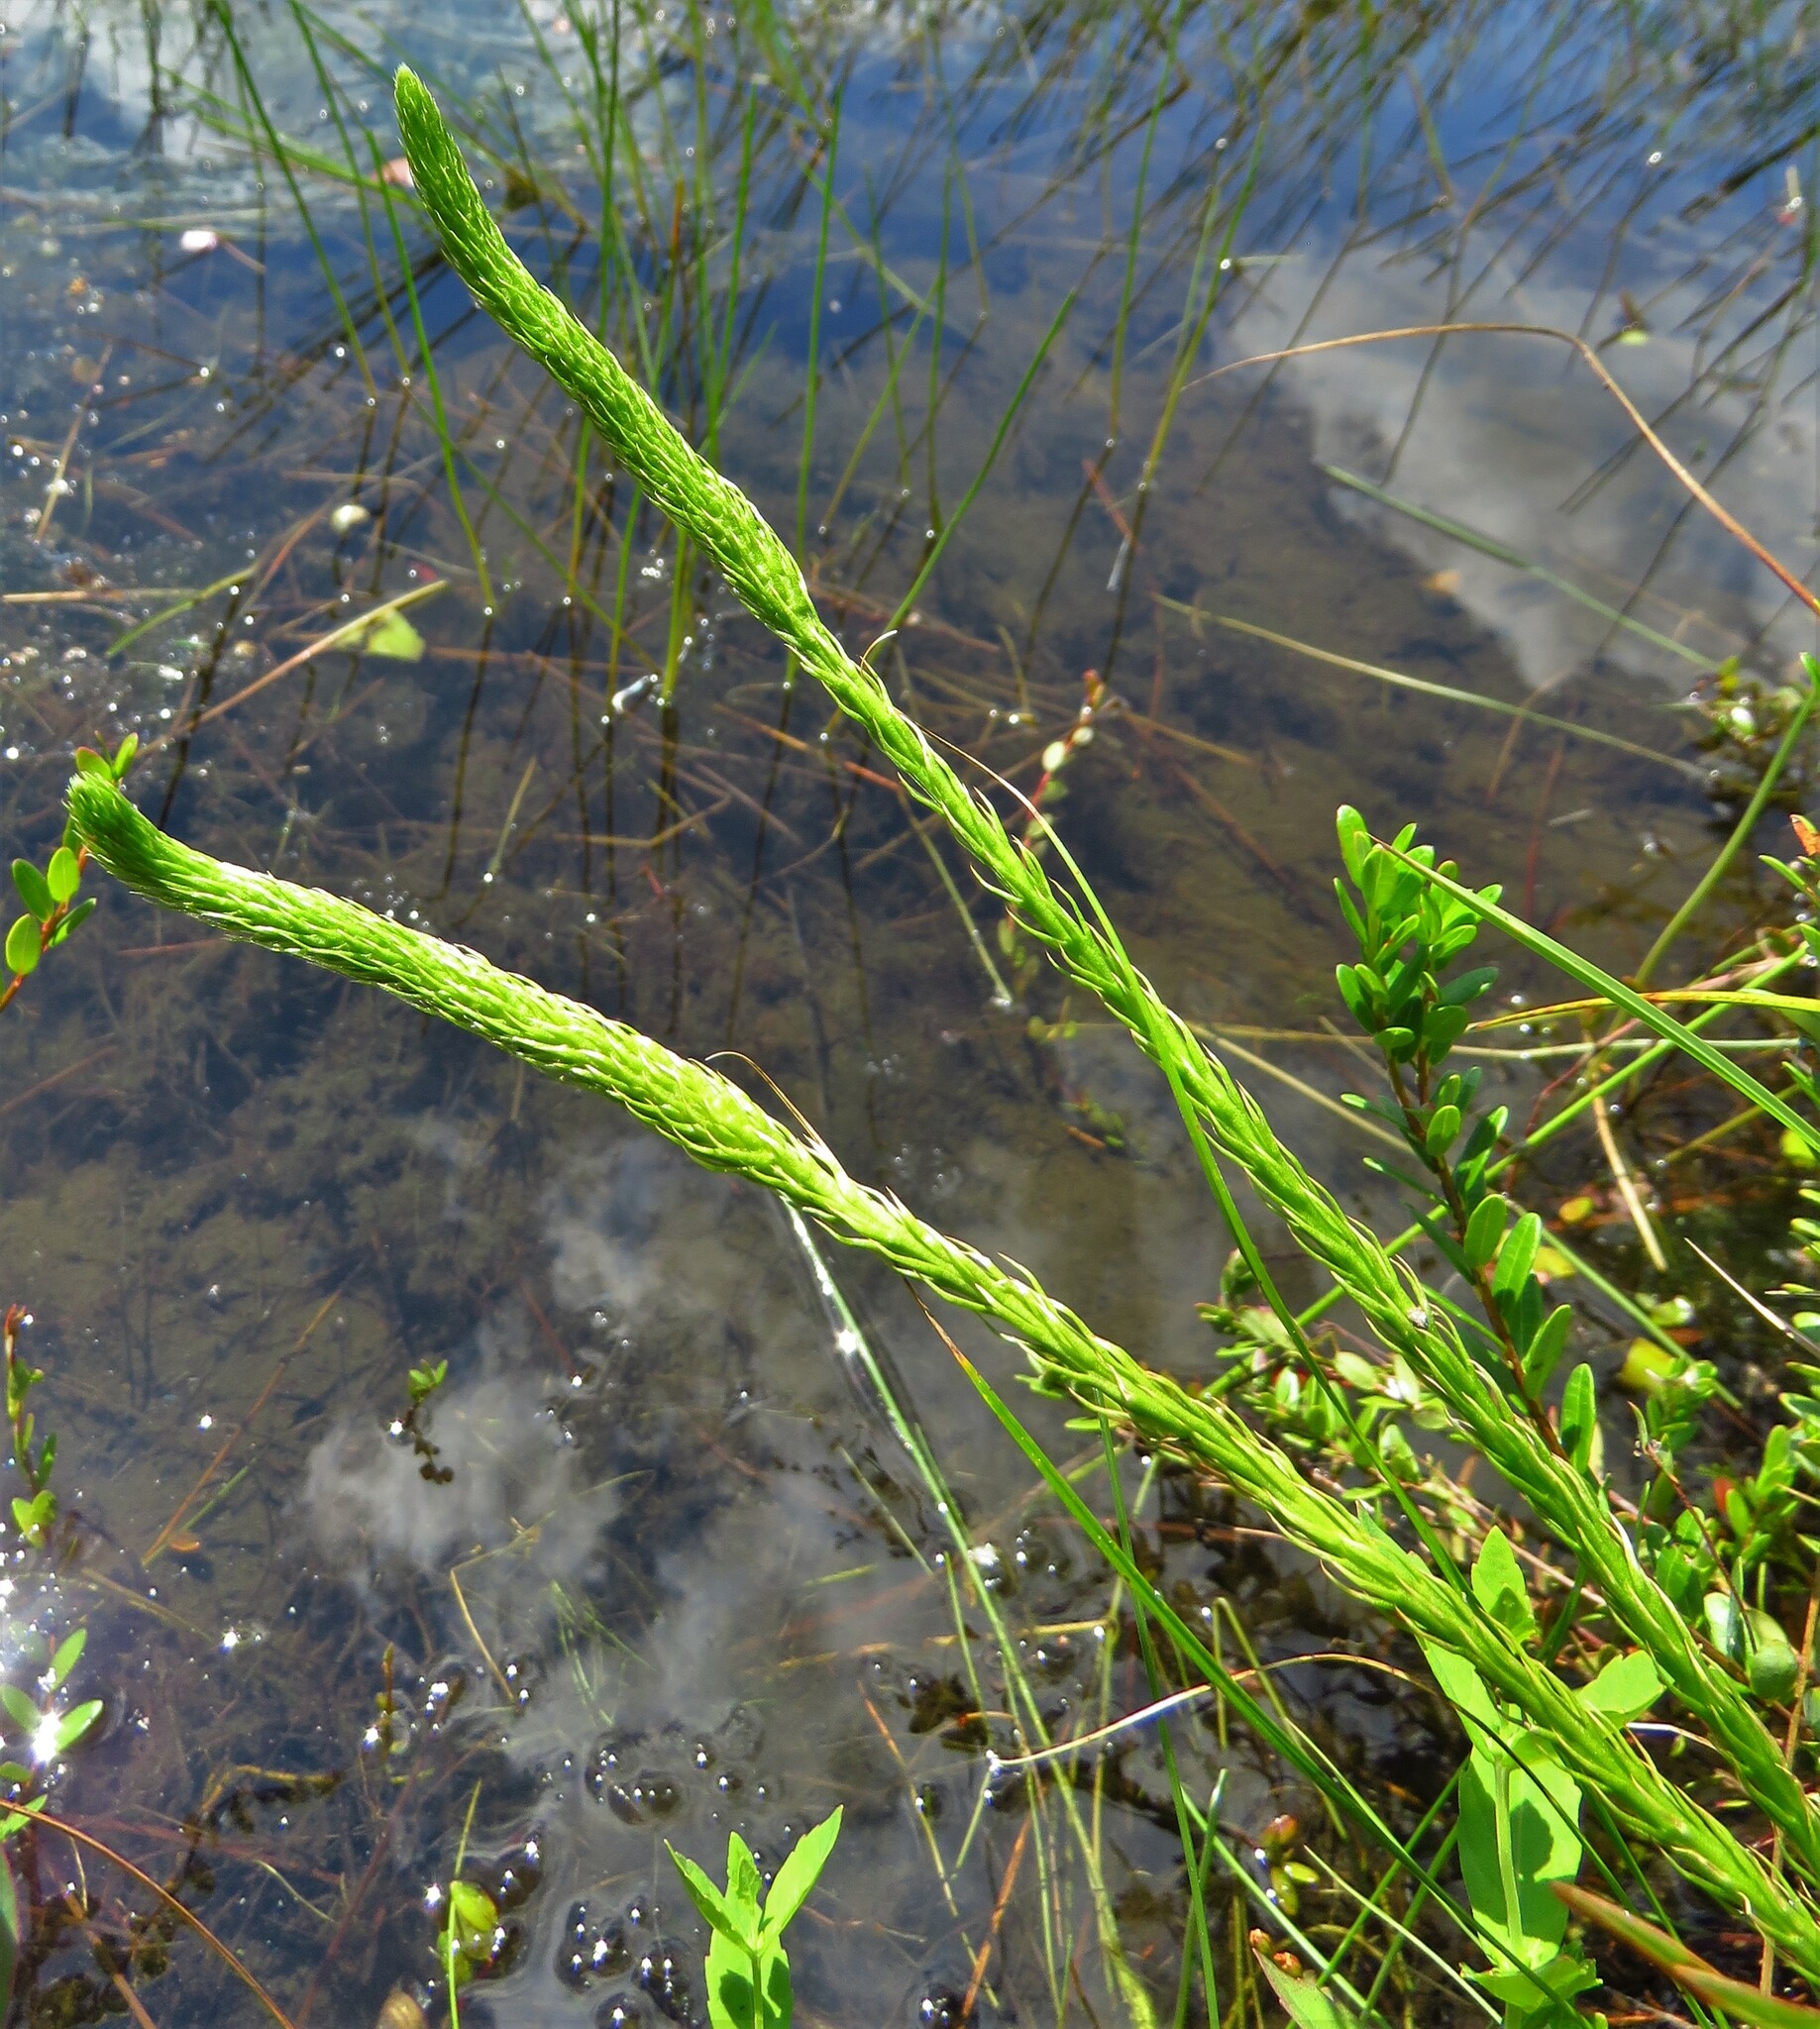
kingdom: Plantae
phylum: Tracheophyta
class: Lycopodiopsida
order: Lycopodiales
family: Lycopodiaceae
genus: Lycopodiella
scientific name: Lycopodiella appressa
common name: Appressed bog clubmoss
